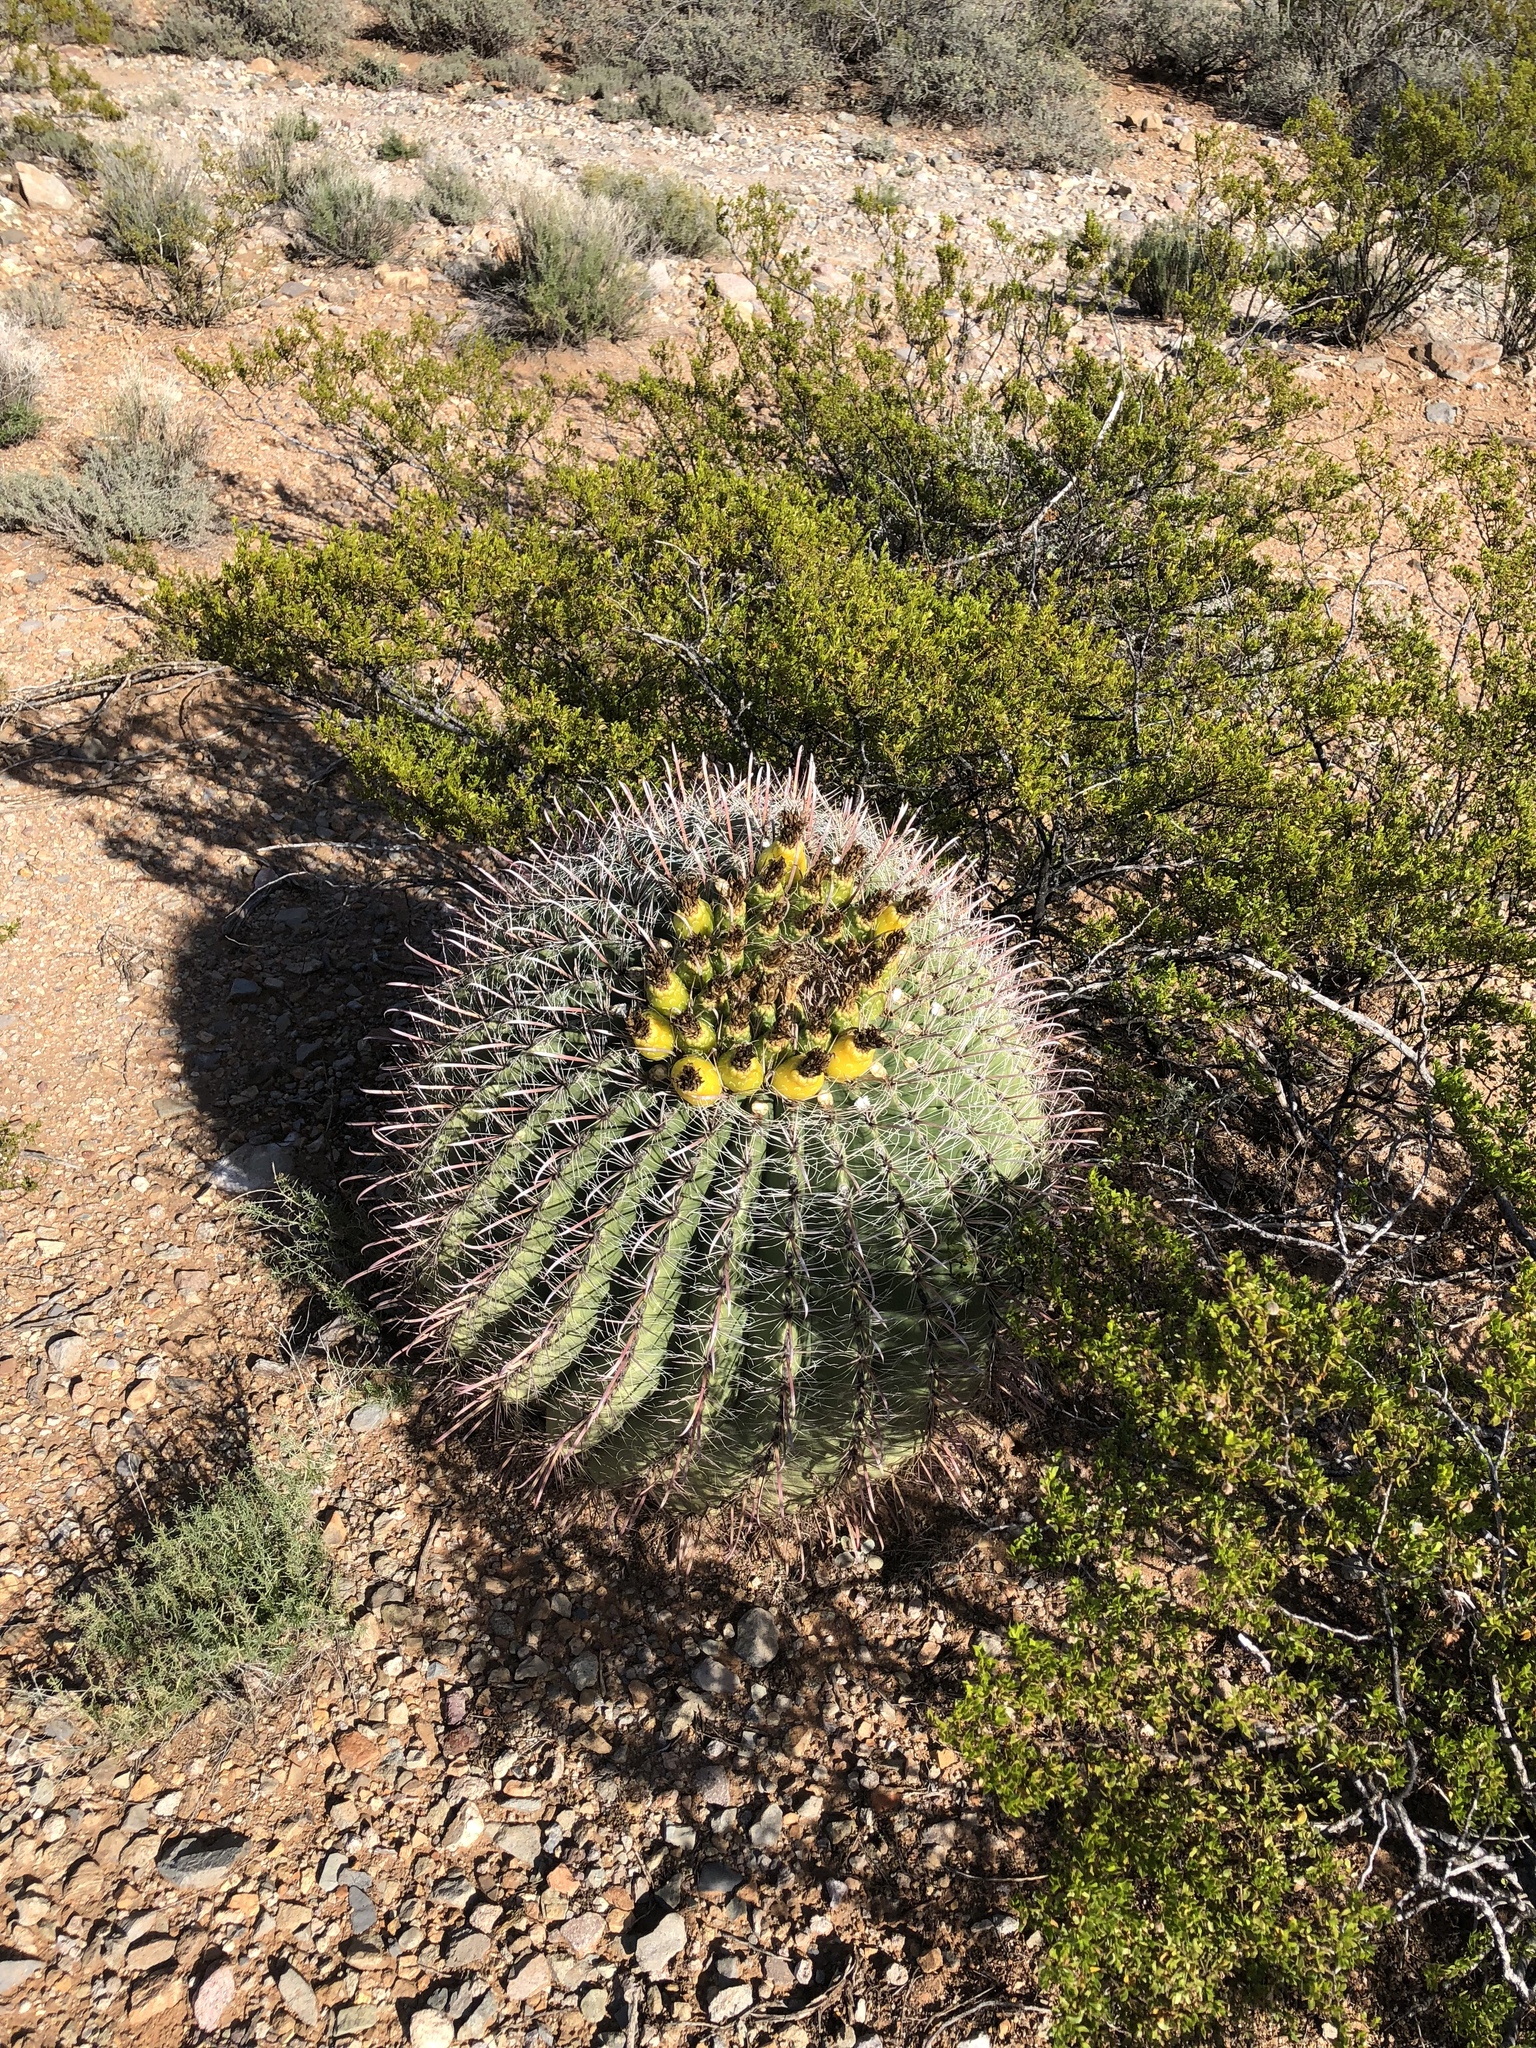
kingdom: Plantae
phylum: Tracheophyta
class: Magnoliopsida
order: Caryophyllales
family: Cactaceae
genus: Ferocactus
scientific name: Ferocactus wislizeni
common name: Candy barrel cactus
